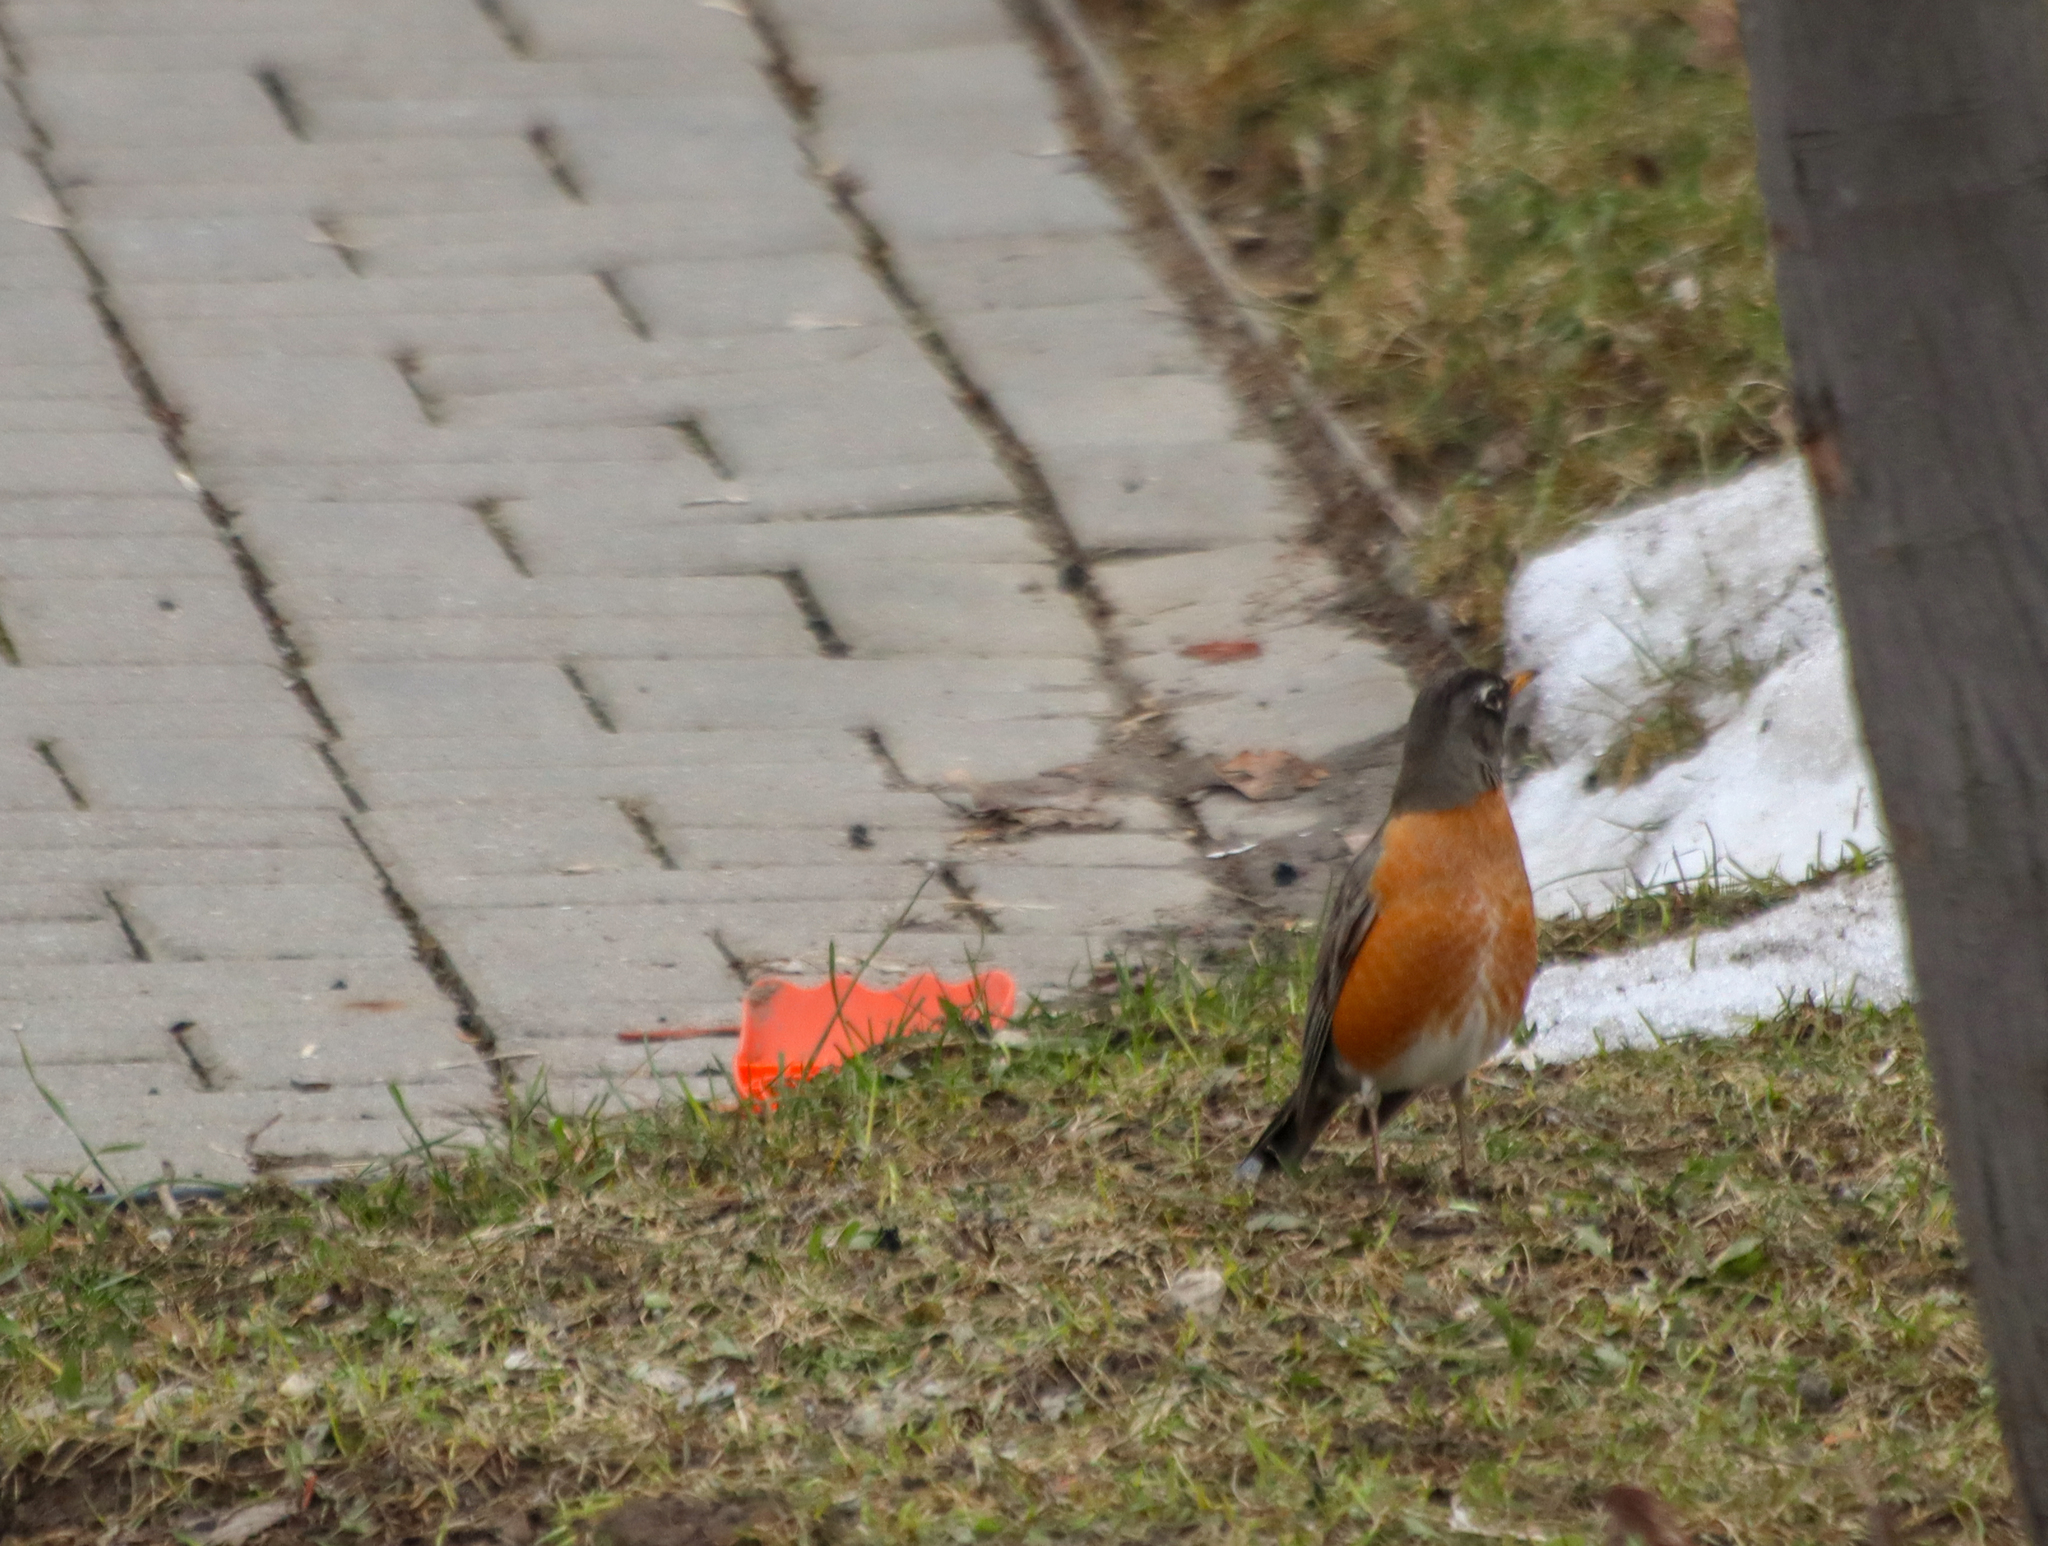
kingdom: Animalia
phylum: Chordata
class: Aves
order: Passeriformes
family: Turdidae
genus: Turdus
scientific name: Turdus migratorius
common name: American robin
